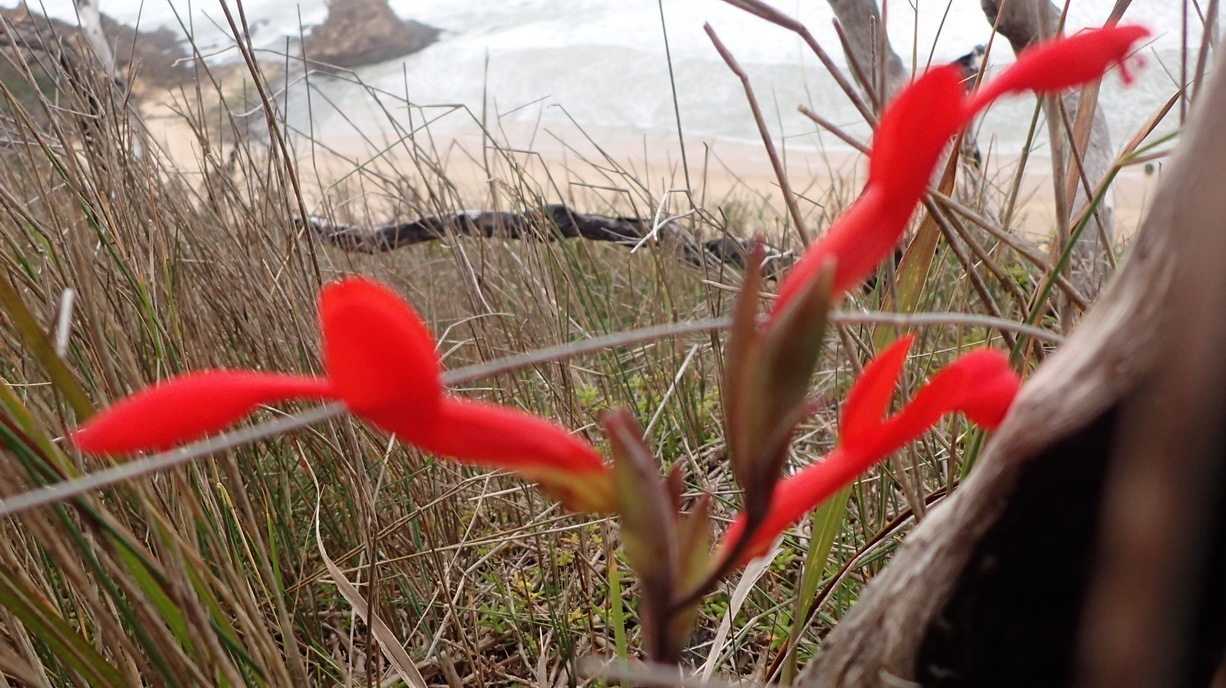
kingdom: Plantae
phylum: Tracheophyta
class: Liliopsida
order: Asparagales
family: Iridaceae
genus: Gladiolus
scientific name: Gladiolus cunonius
